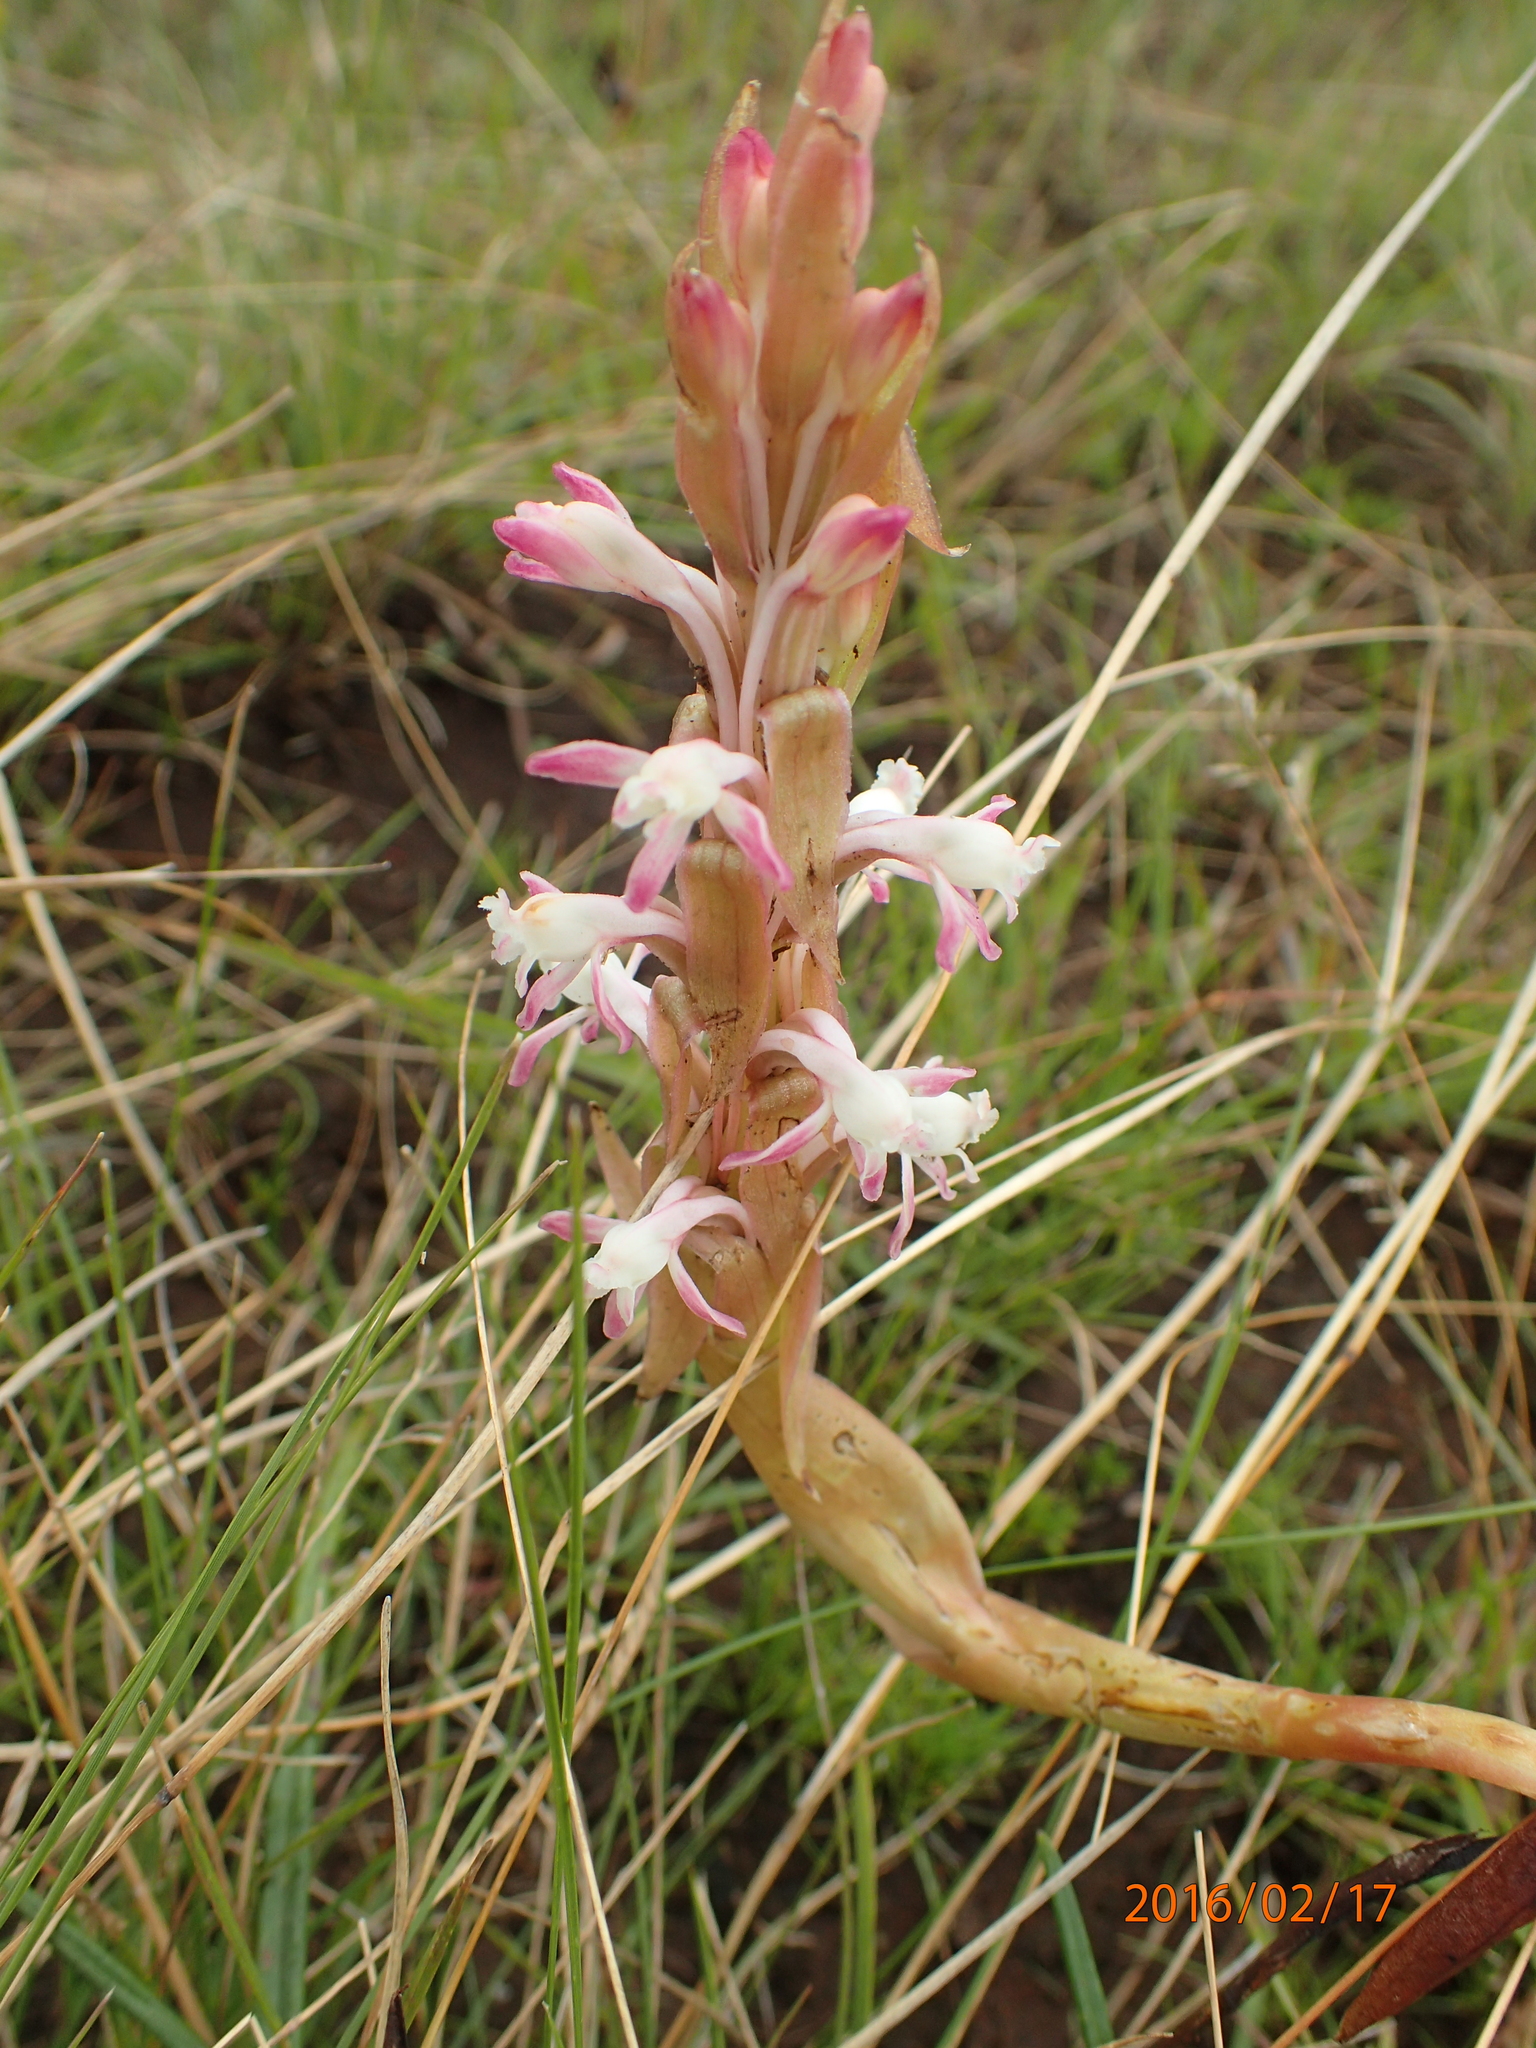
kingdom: Plantae
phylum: Tracheophyta
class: Liliopsida
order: Asparagales
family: Orchidaceae
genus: Satyrium
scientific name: Satyrium longicauda
